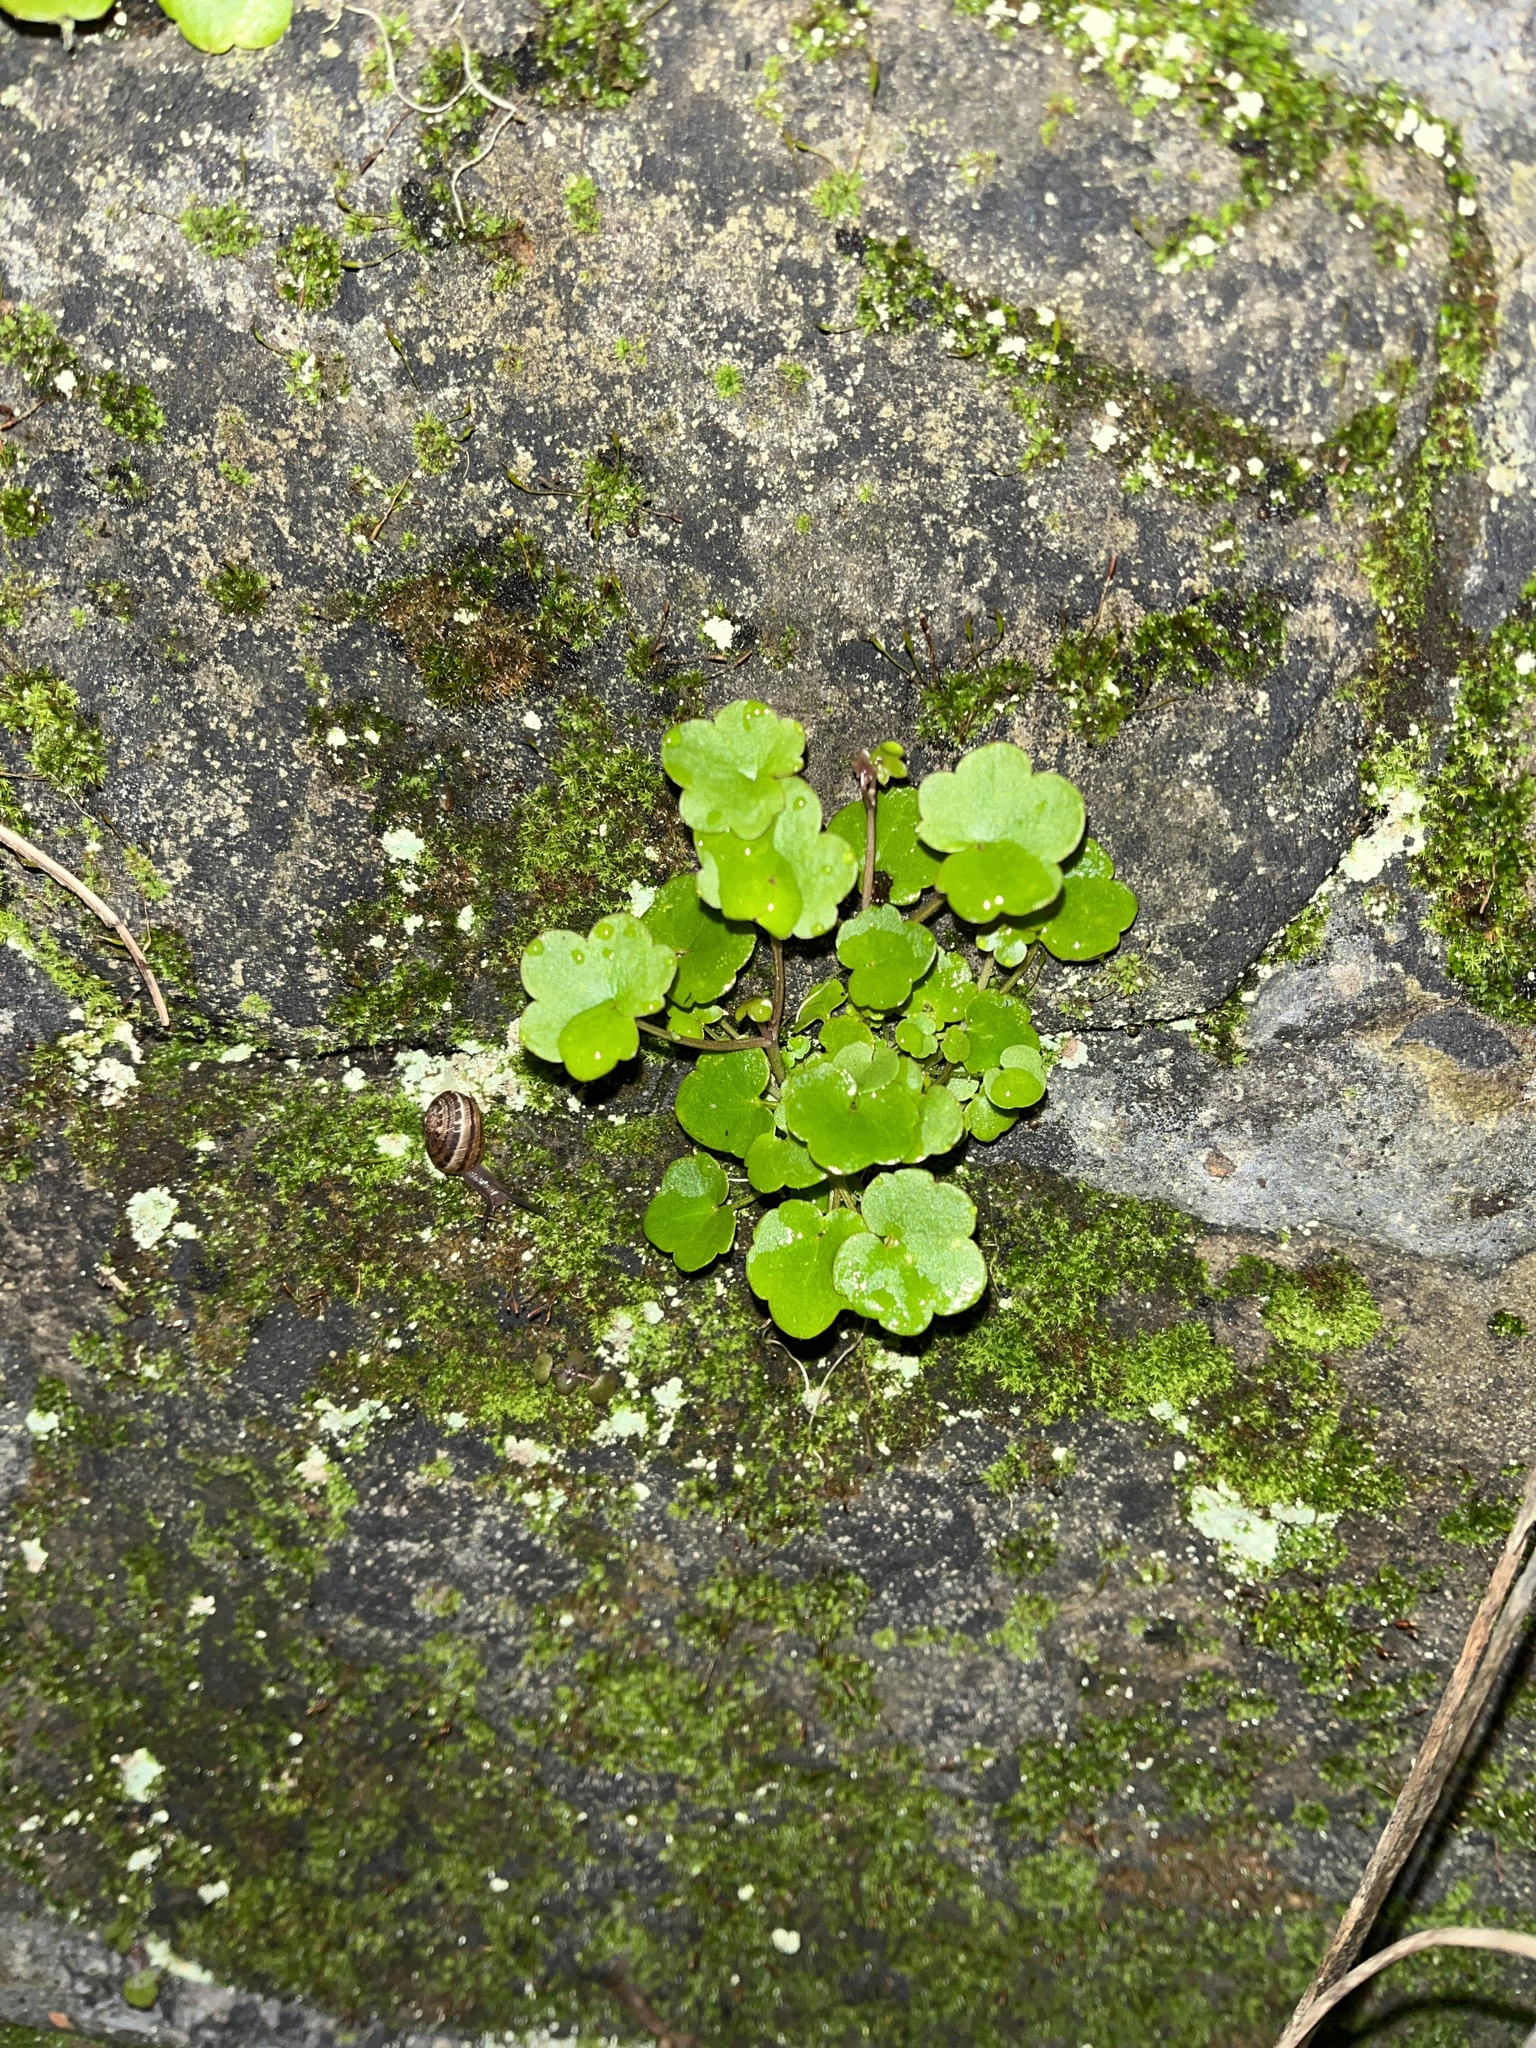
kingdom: Plantae
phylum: Tracheophyta
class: Magnoliopsida
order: Lamiales
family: Plantaginaceae
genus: Cymbalaria
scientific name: Cymbalaria muralis
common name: Ivy-leaved toadflax
